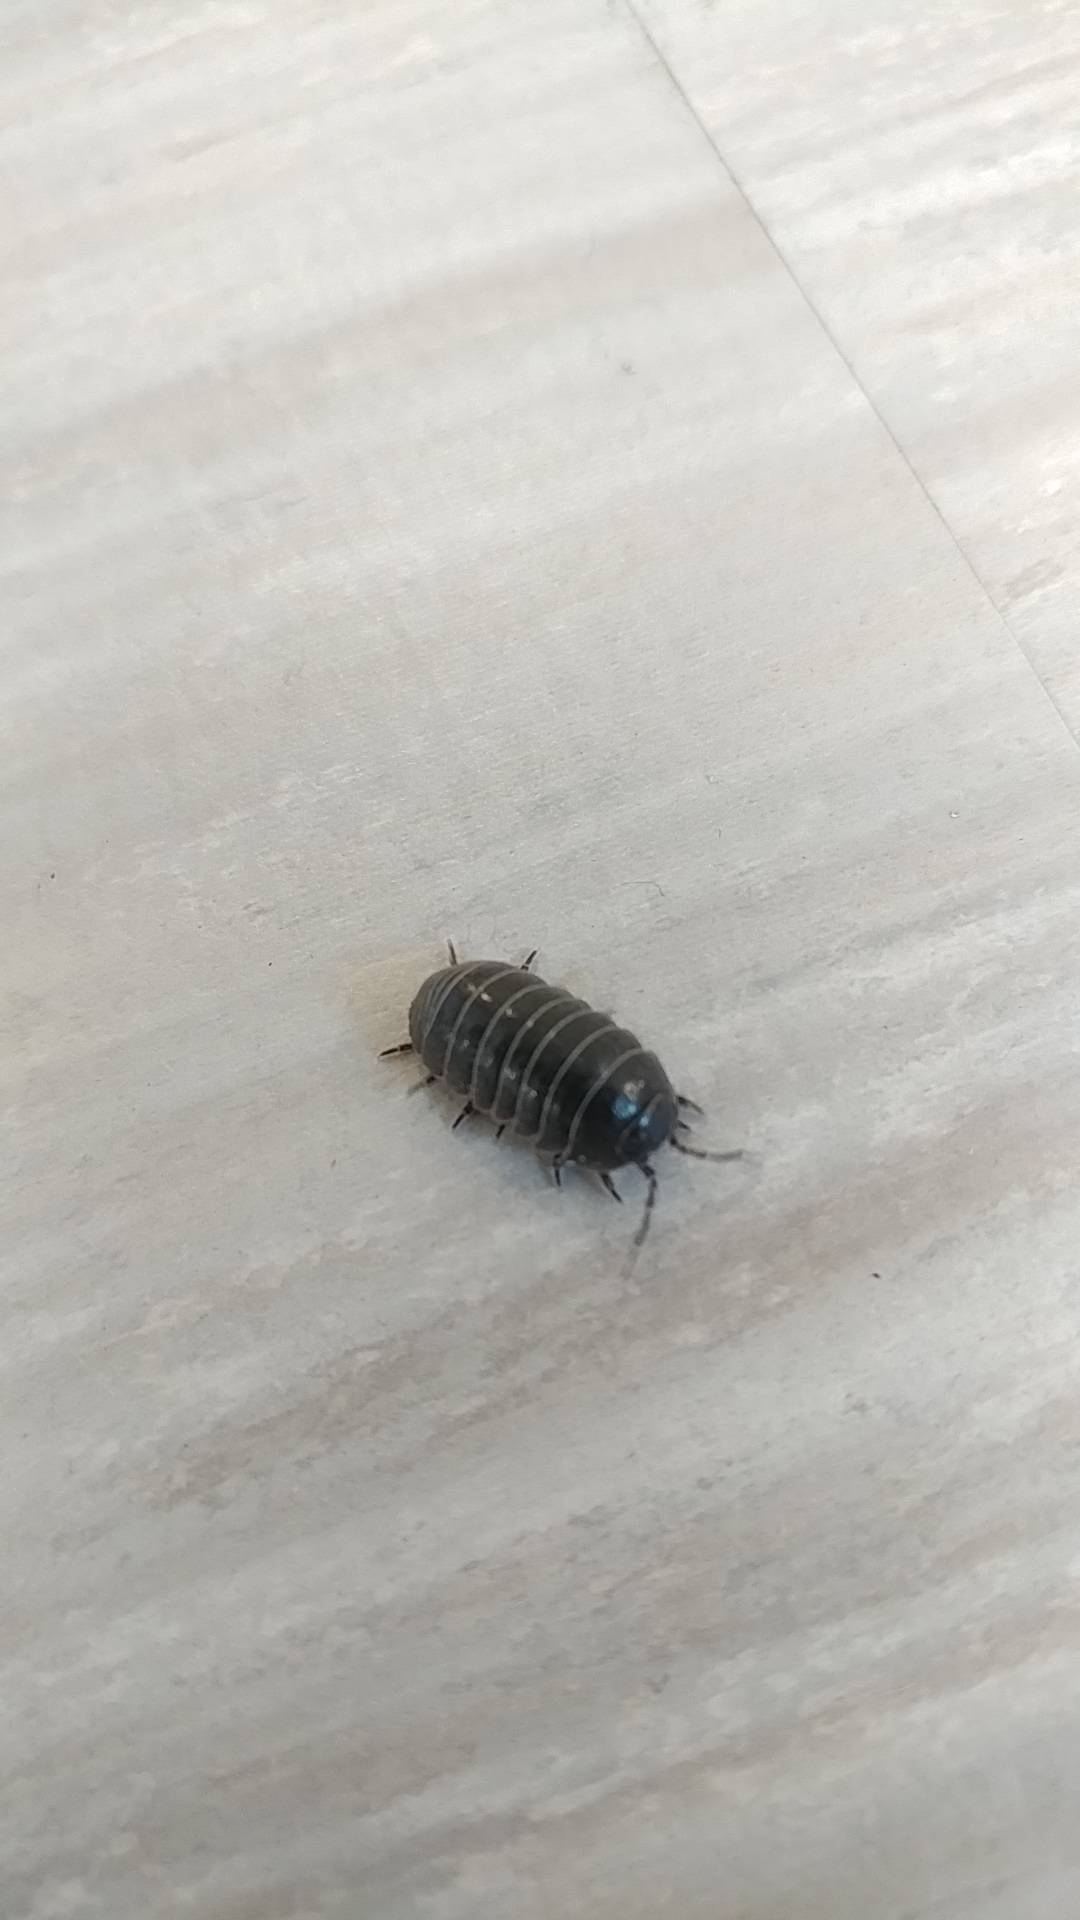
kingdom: Animalia
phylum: Arthropoda
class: Malacostraca
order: Isopoda
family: Armadillidiidae
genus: Armadillidium
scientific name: Armadillidium vulgare
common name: Common pill woodlouse
